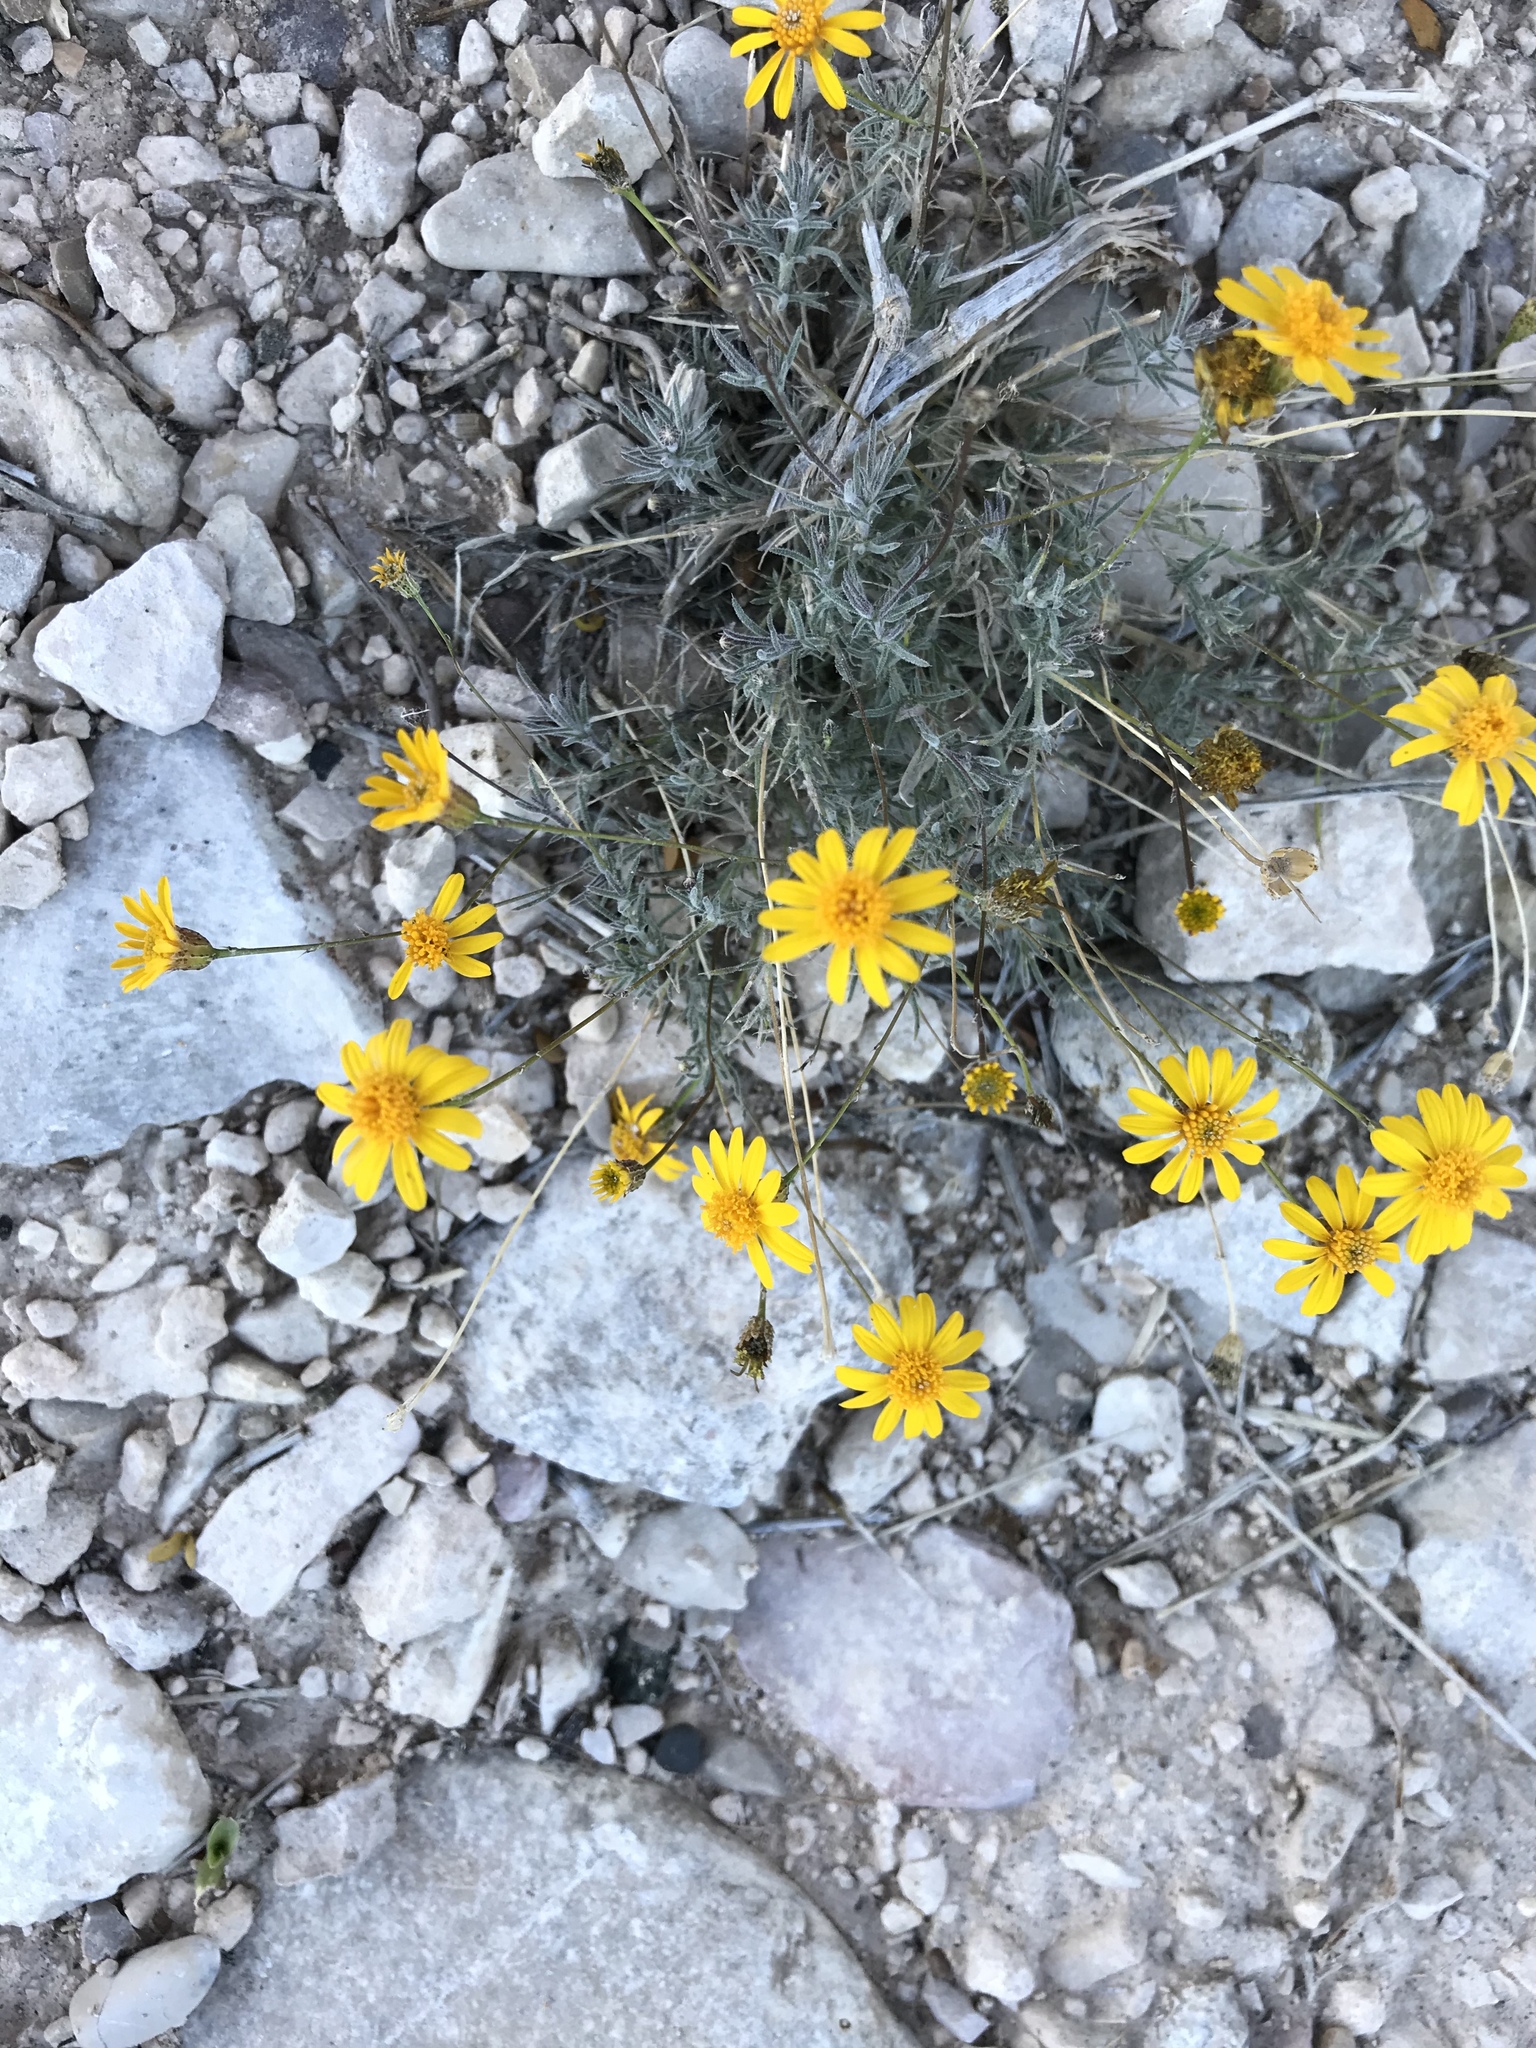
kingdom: Plantae
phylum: Tracheophyta
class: Magnoliopsida
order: Asterales
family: Asteraceae
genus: Thymophylla
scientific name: Thymophylla pentachaeta
